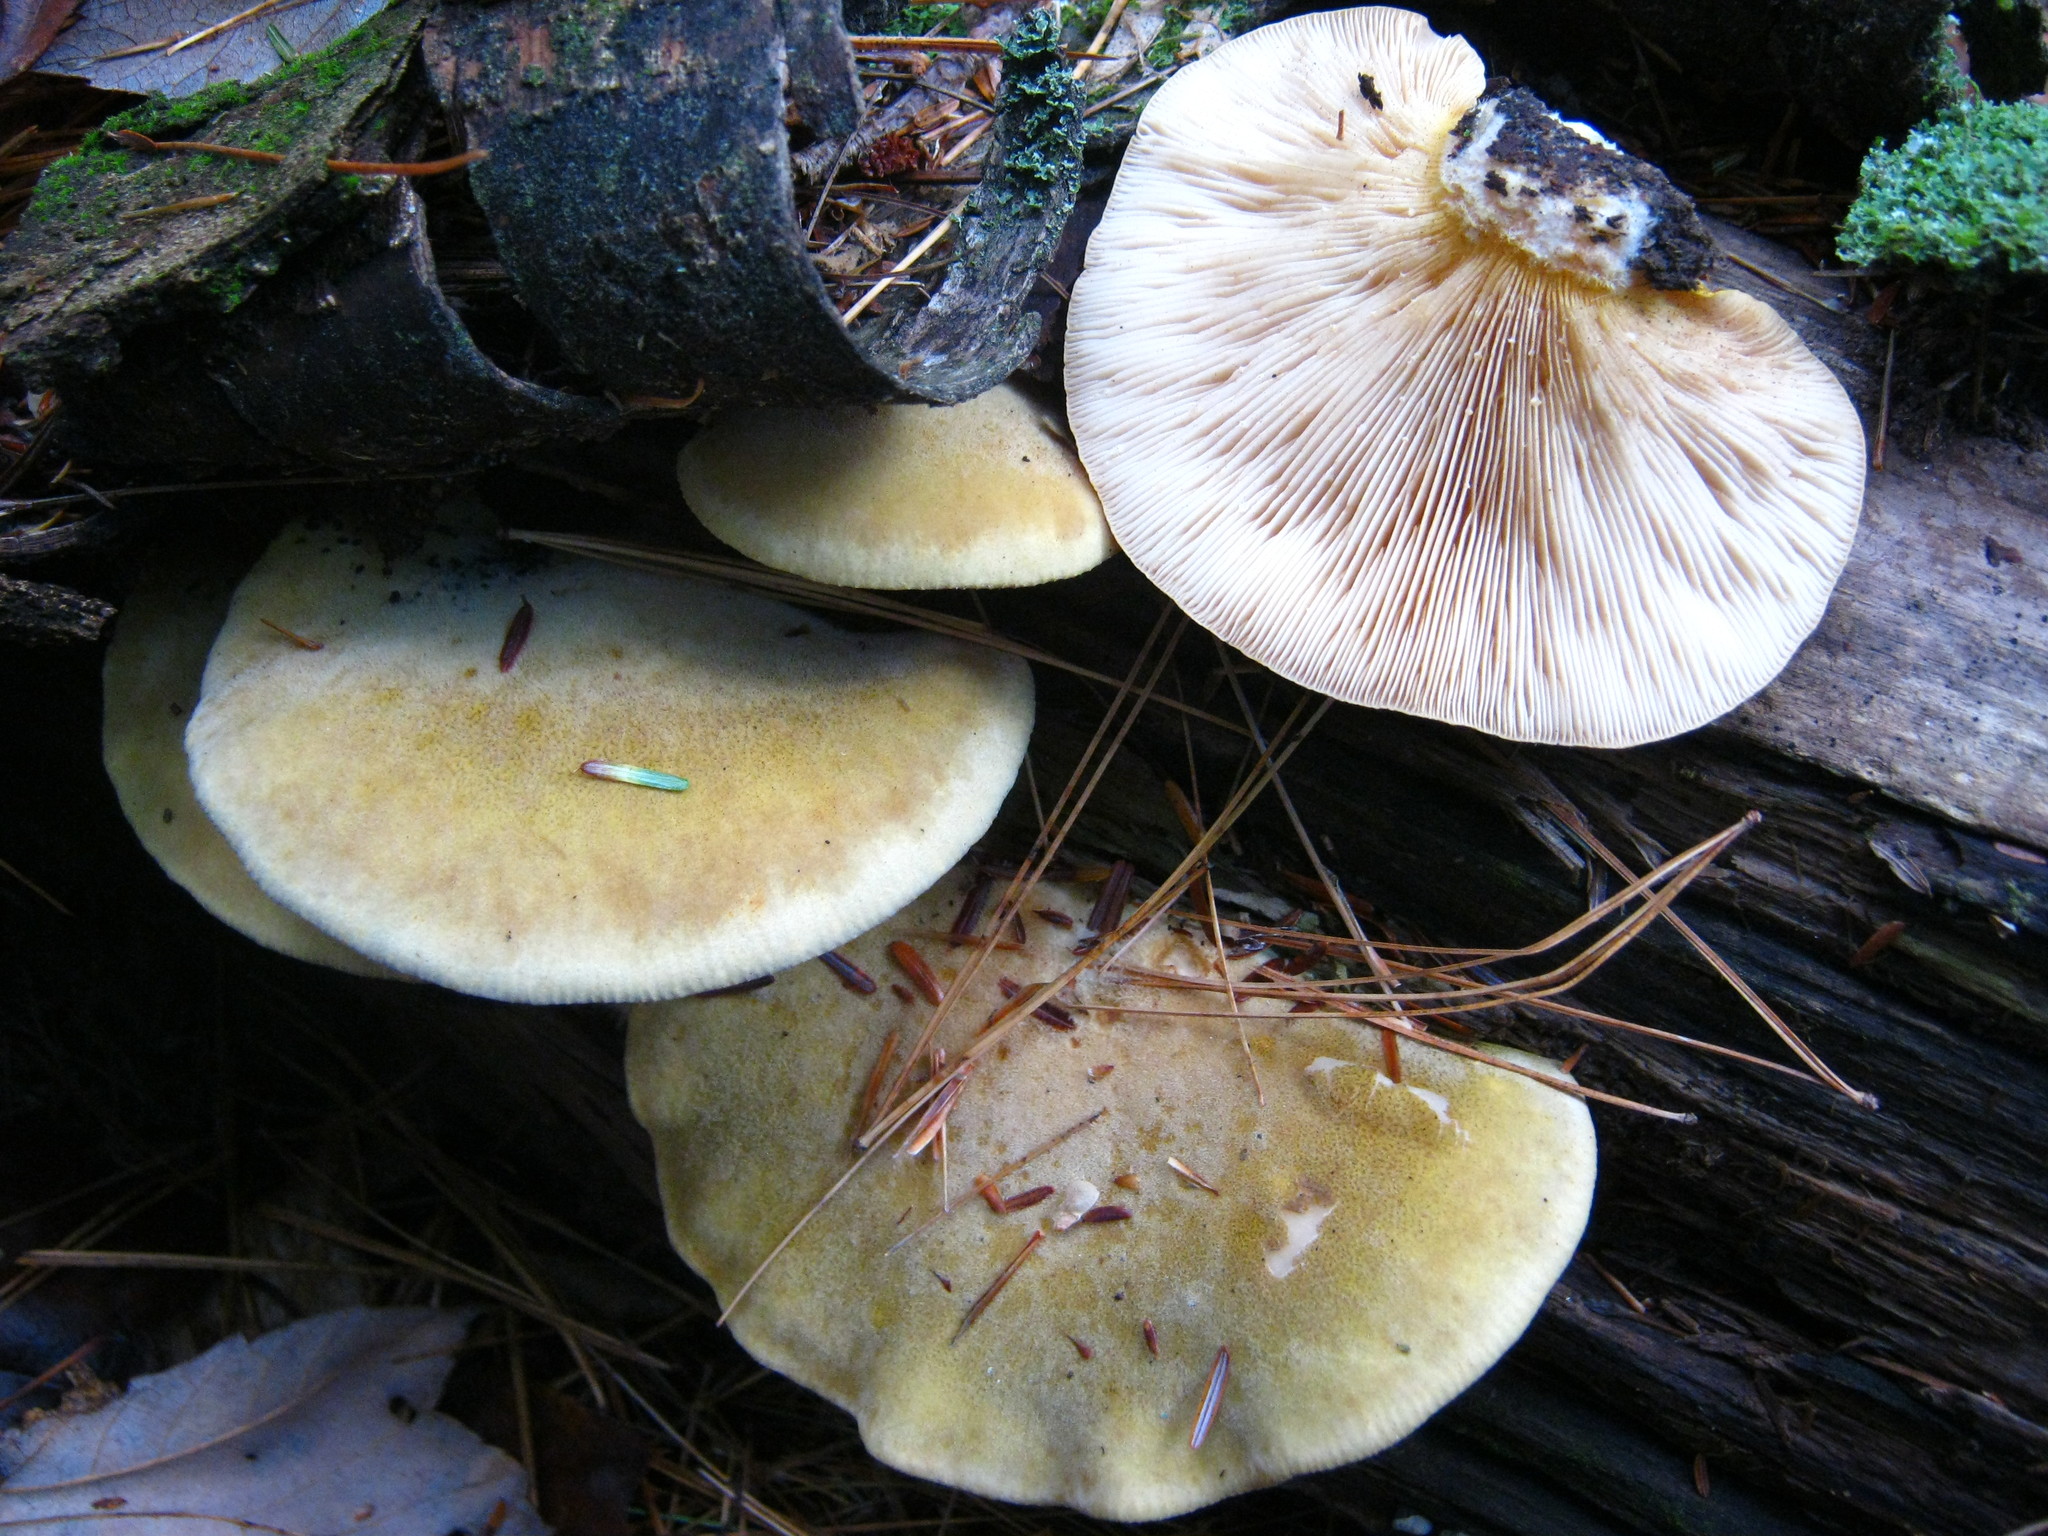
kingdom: Fungi
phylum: Basidiomycota
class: Agaricomycetes
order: Agaricales
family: Sarcomyxaceae
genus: Sarcomyxa
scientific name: Sarcomyxa serotina
